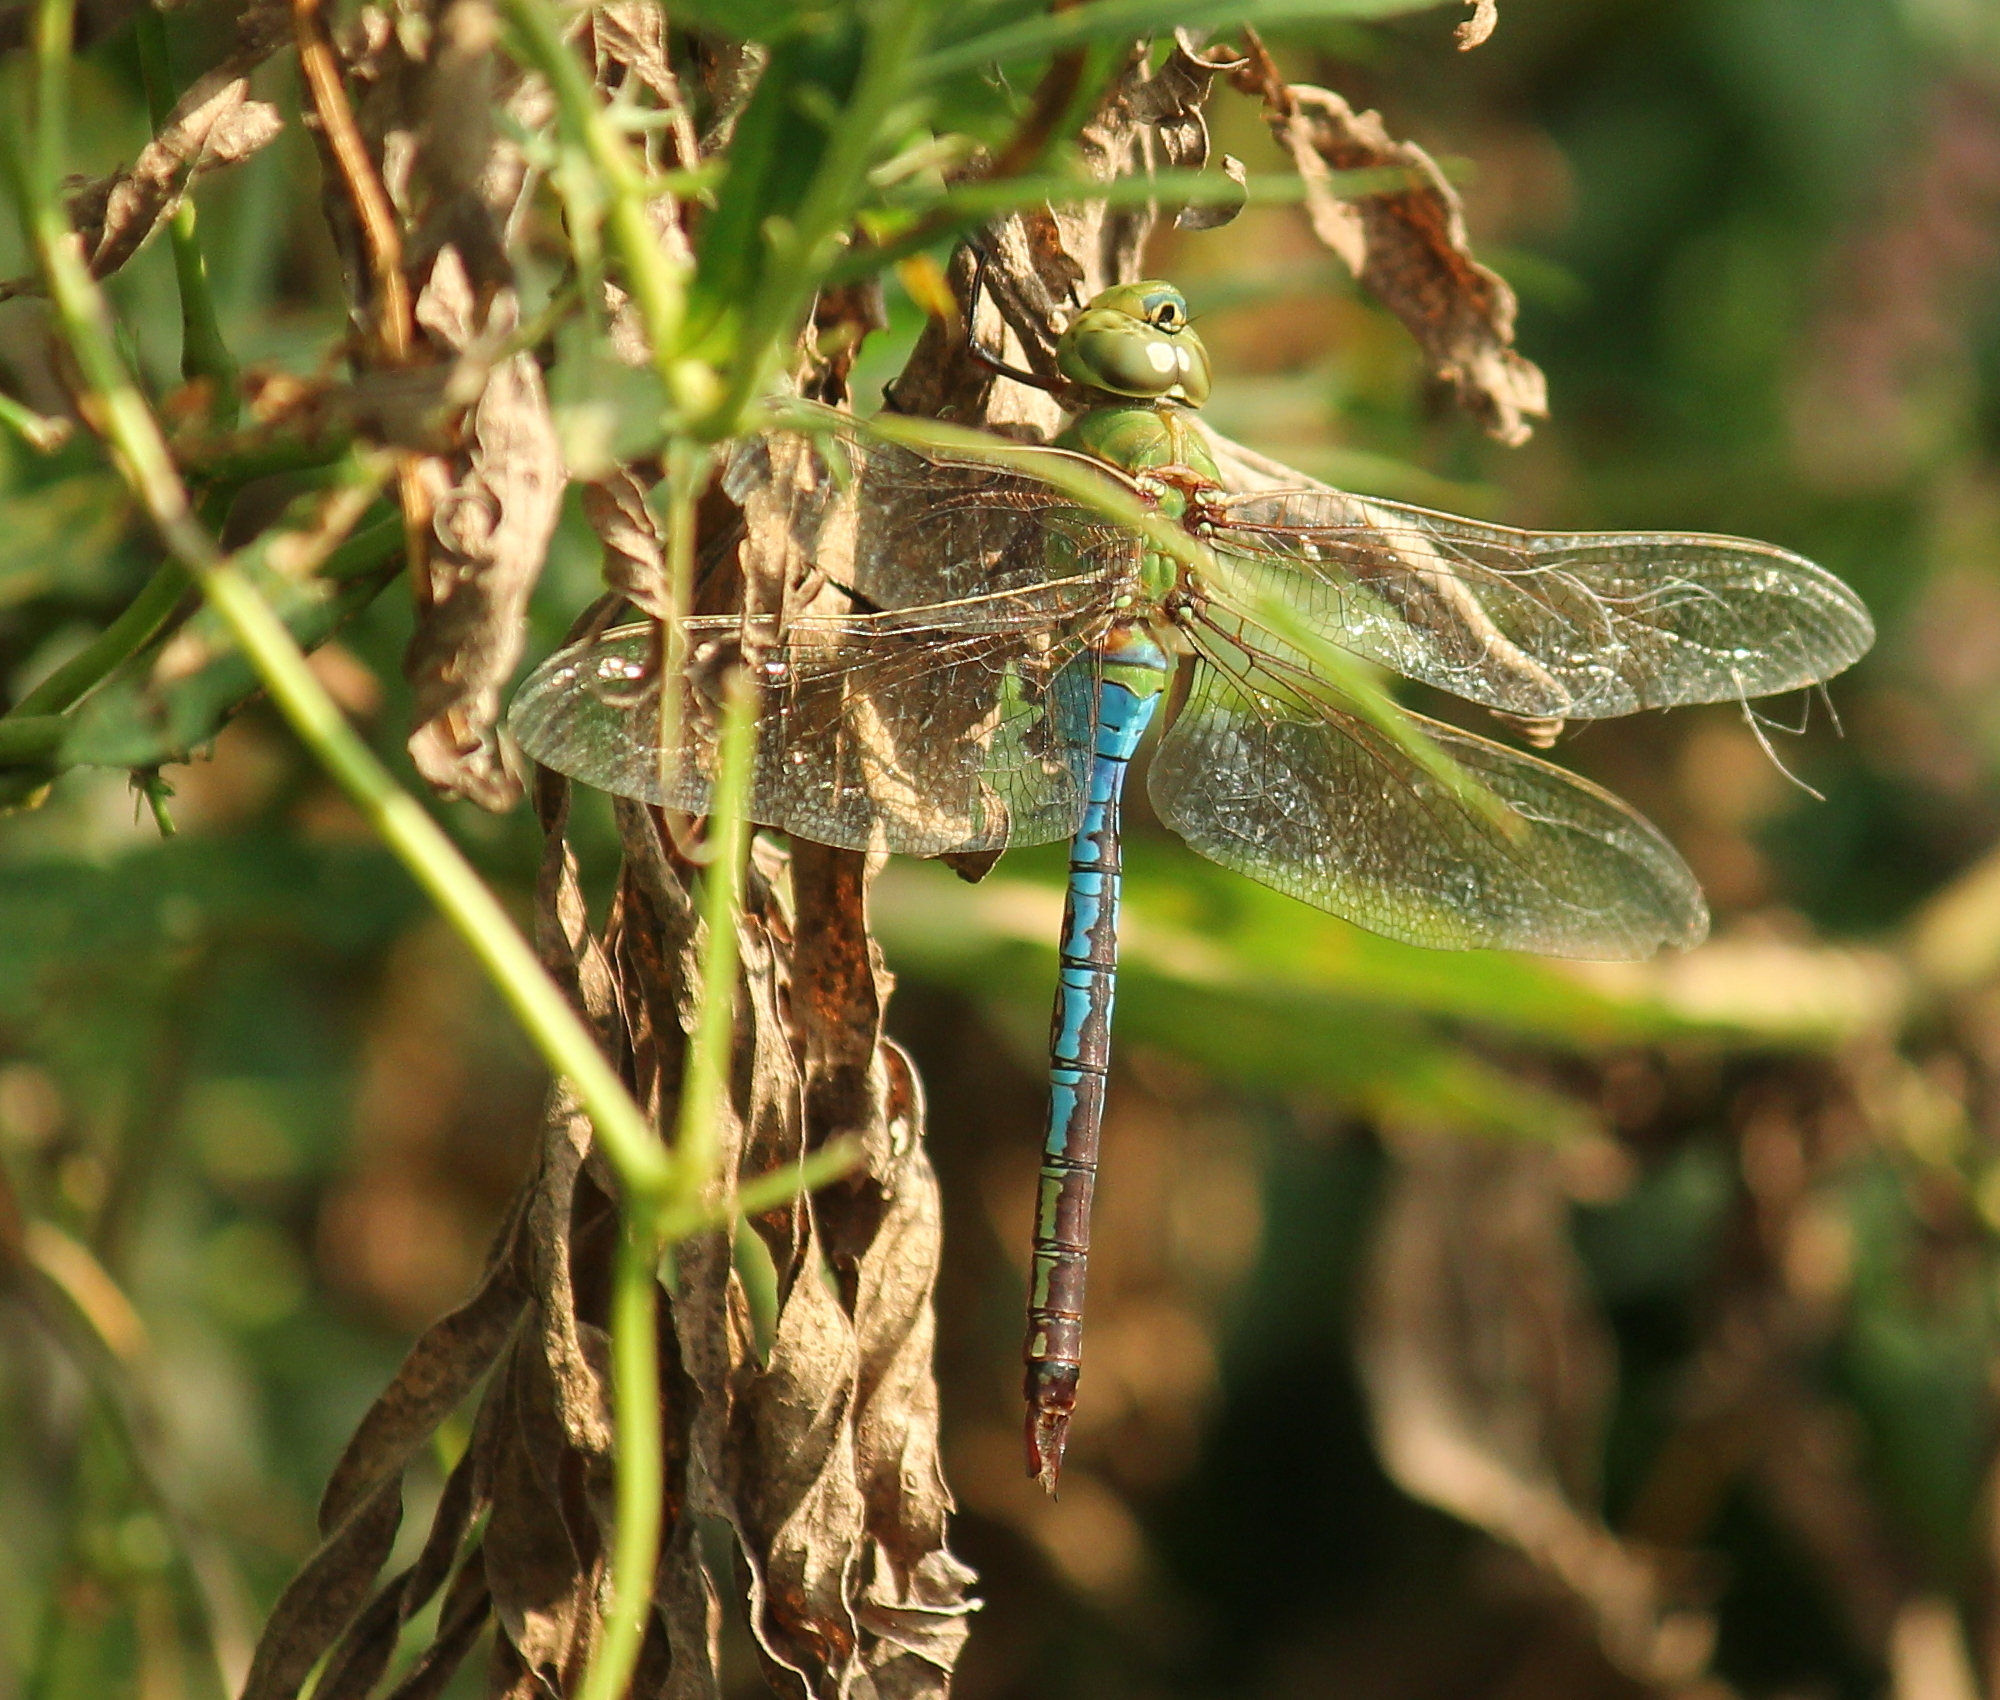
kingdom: Animalia
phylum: Arthropoda
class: Insecta
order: Odonata
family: Aeshnidae
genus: Anax
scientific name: Anax junius
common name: Common green darner
